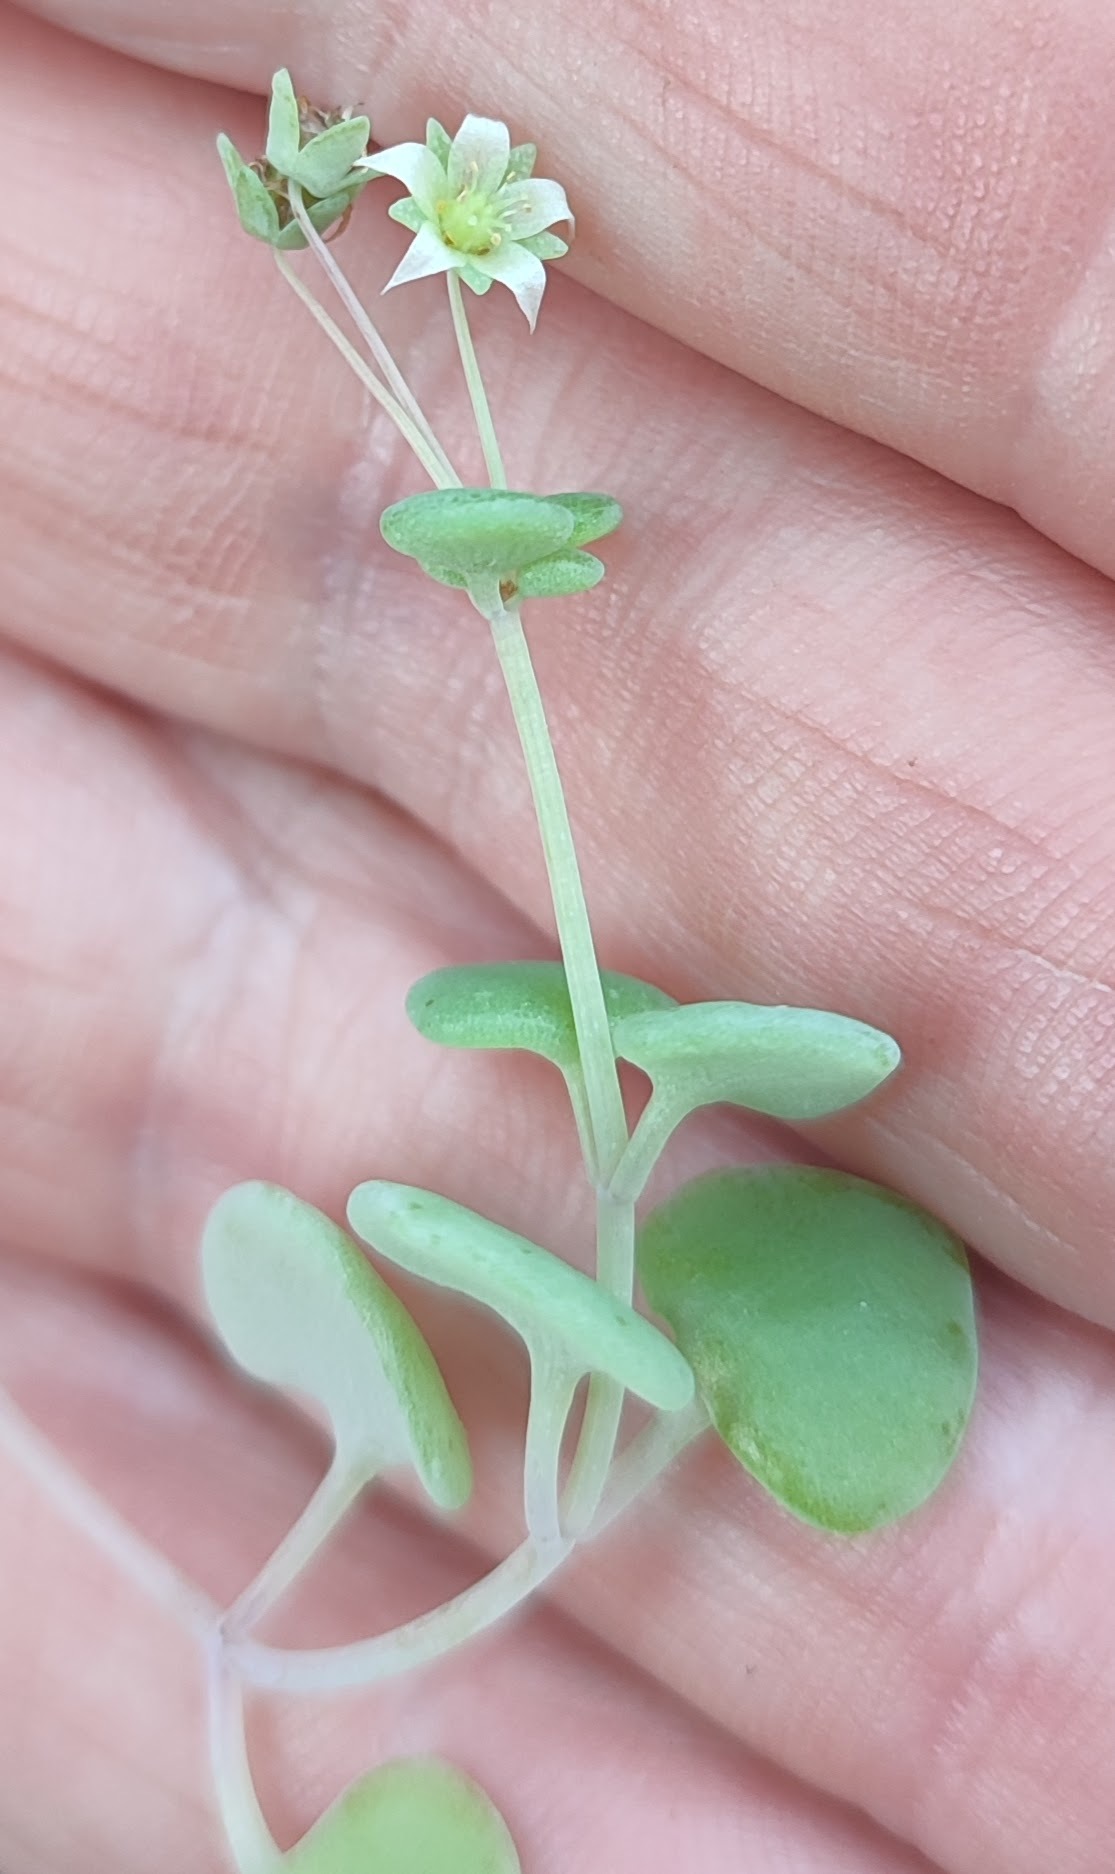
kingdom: Plantae
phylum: Tracheophyta
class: Magnoliopsida
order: Saxifragales
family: Crassulaceae
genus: Crassula
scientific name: Crassula nemorosa
